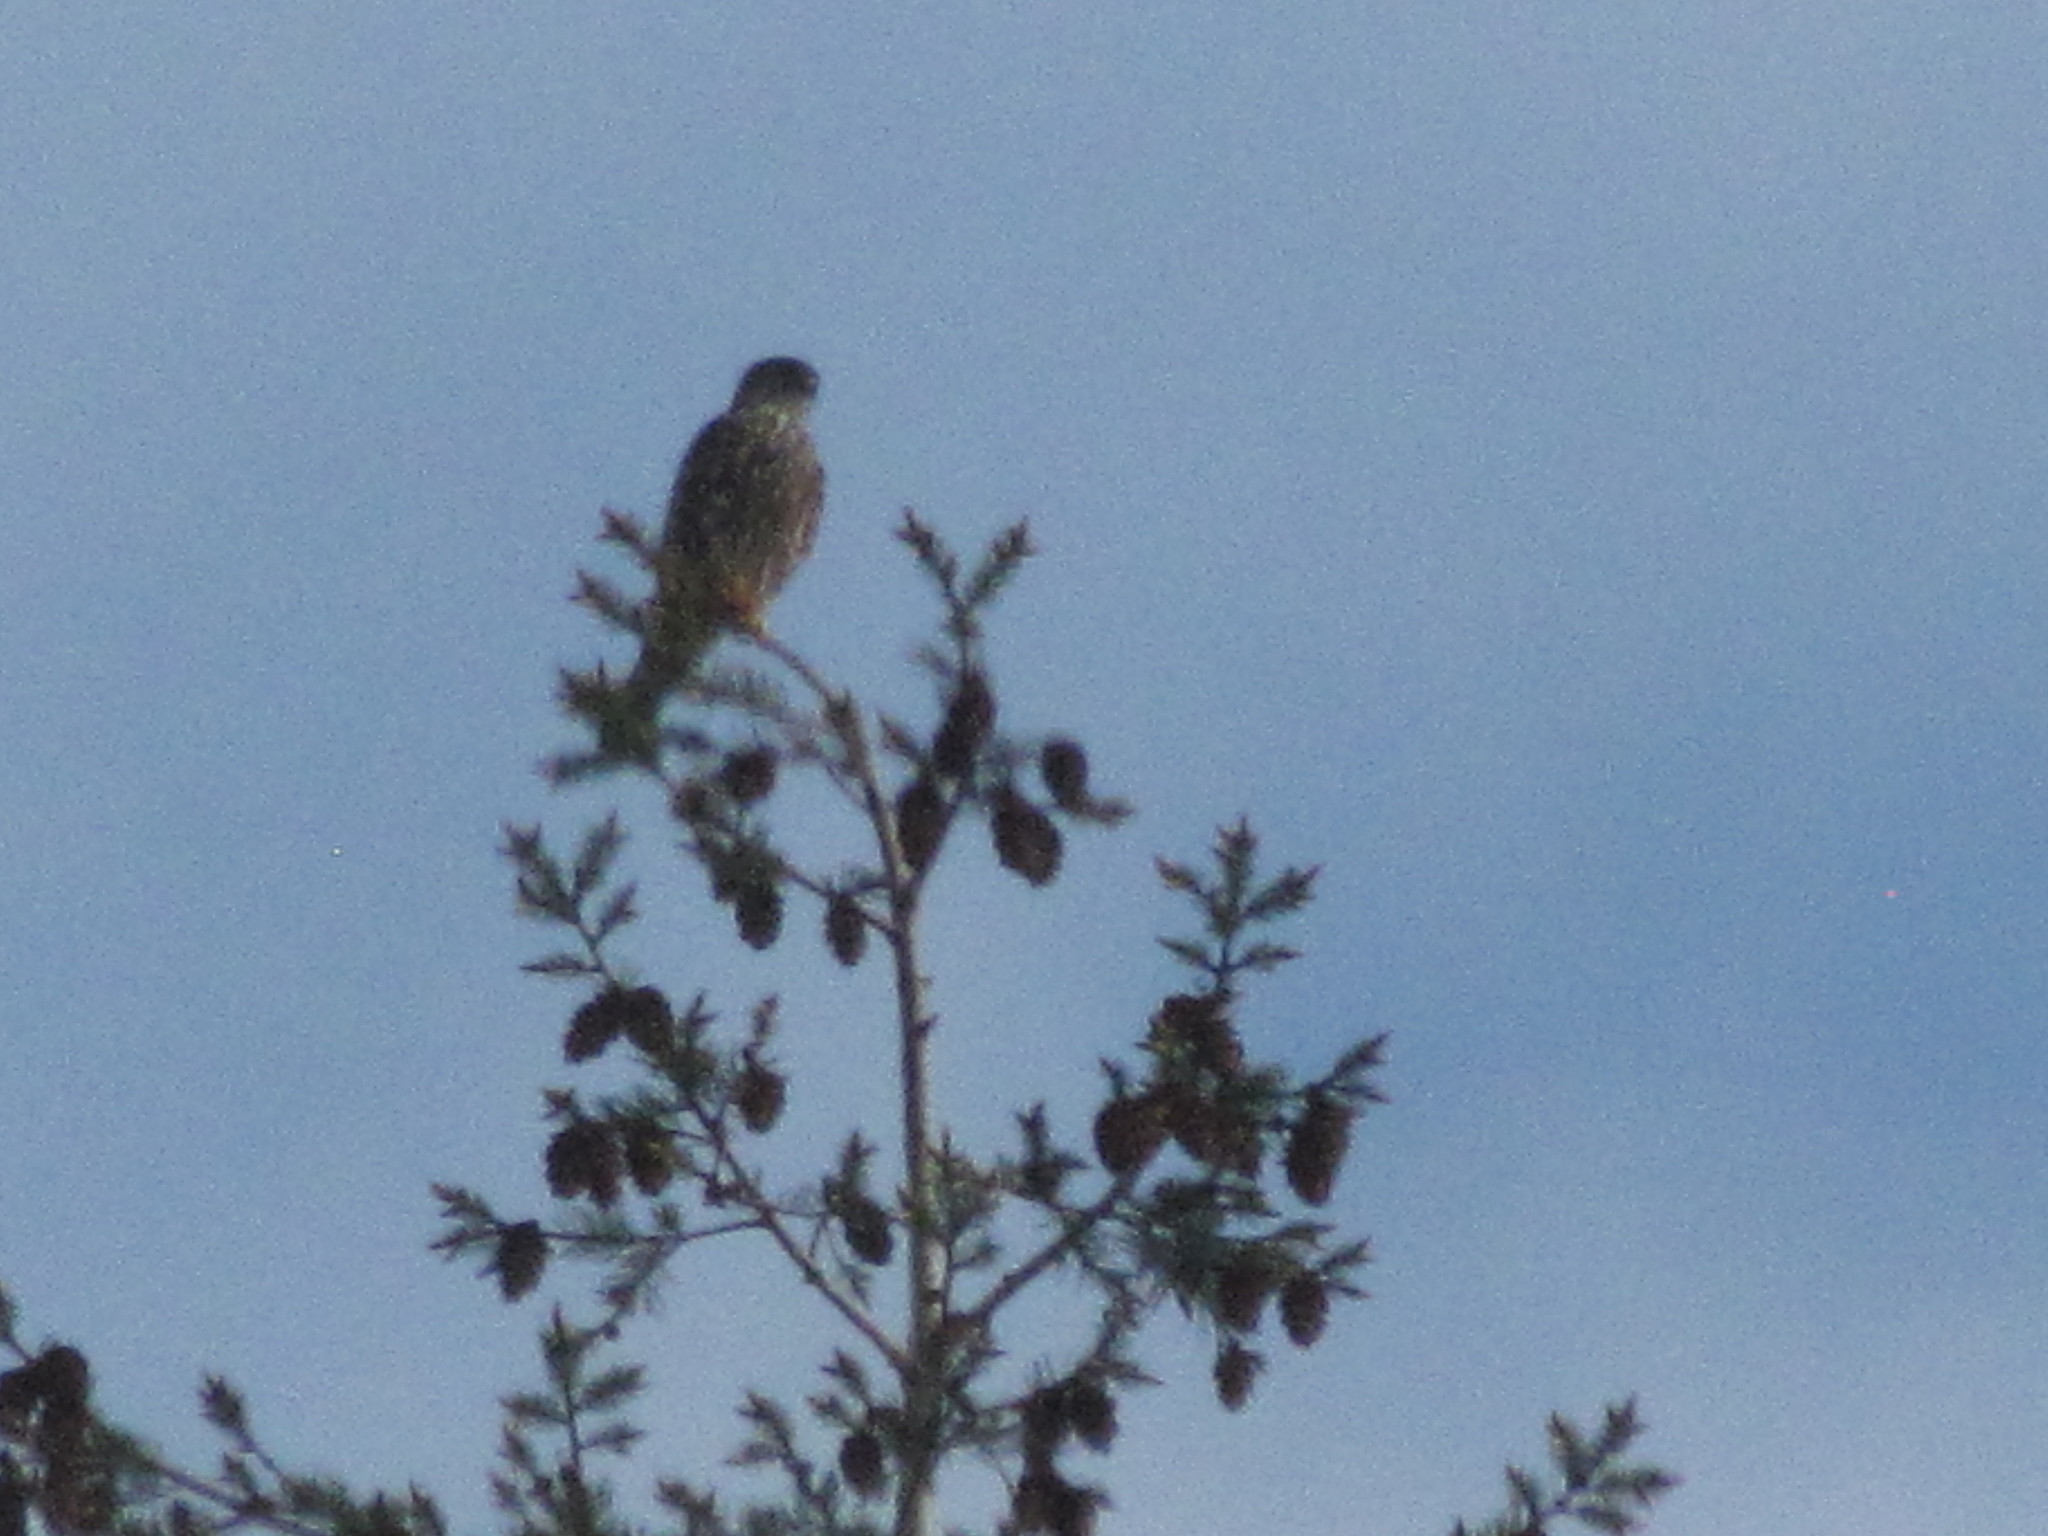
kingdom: Animalia
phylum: Chordata
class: Aves
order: Falconiformes
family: Falconidae
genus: Falco
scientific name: Falco columbarius
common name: Merlin
